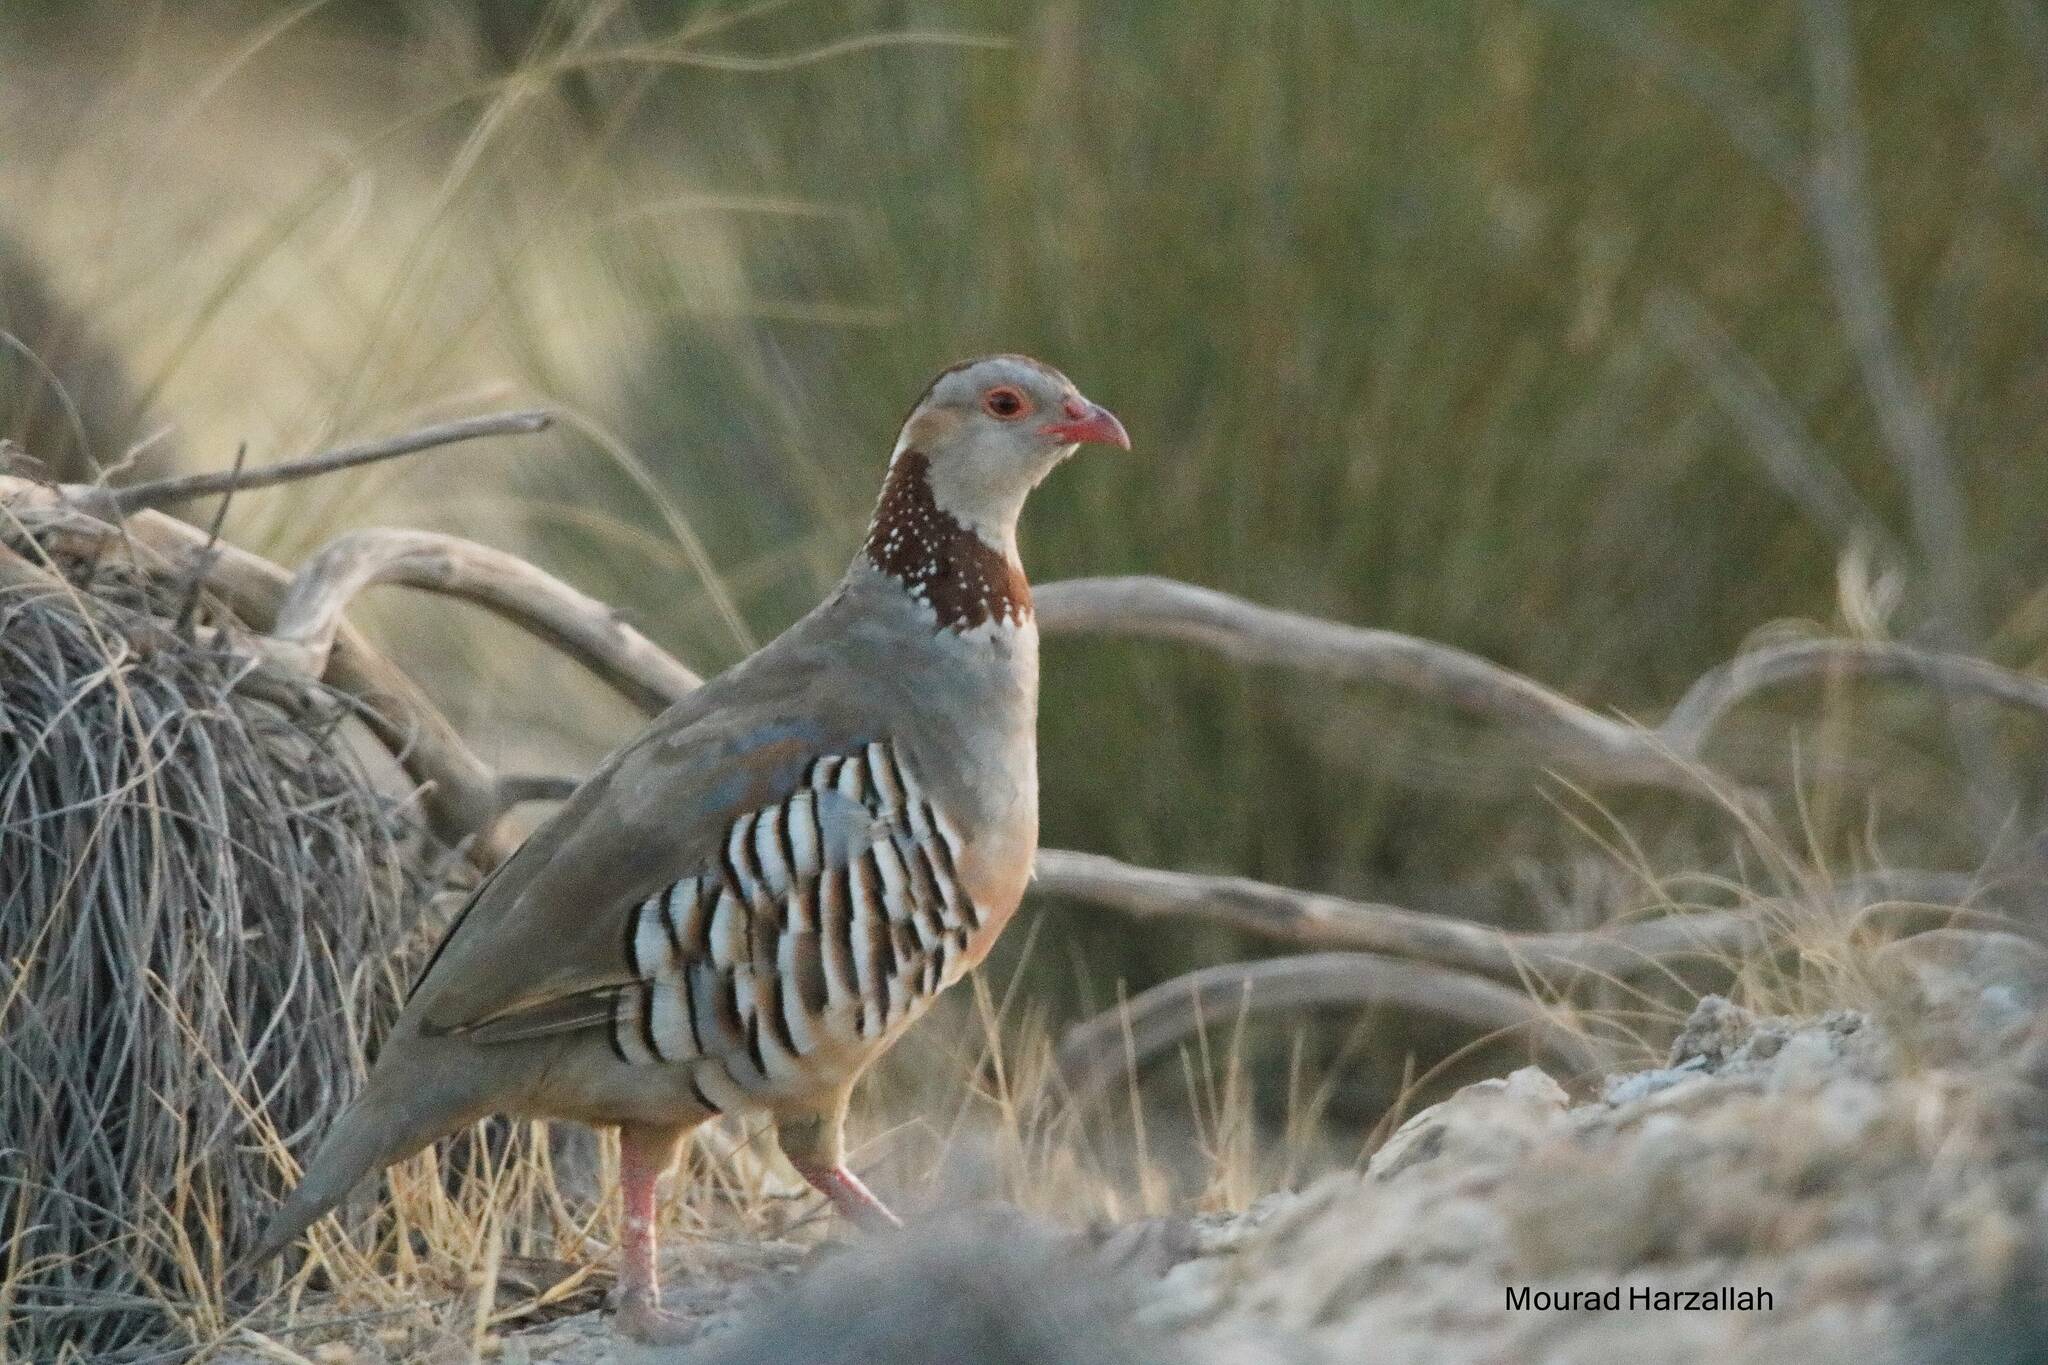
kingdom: Animalia
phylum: Chordata
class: Aves
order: Galliformes
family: Phasianidae
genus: Alectoris
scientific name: Alectoris barbara
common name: Barbary partridge
